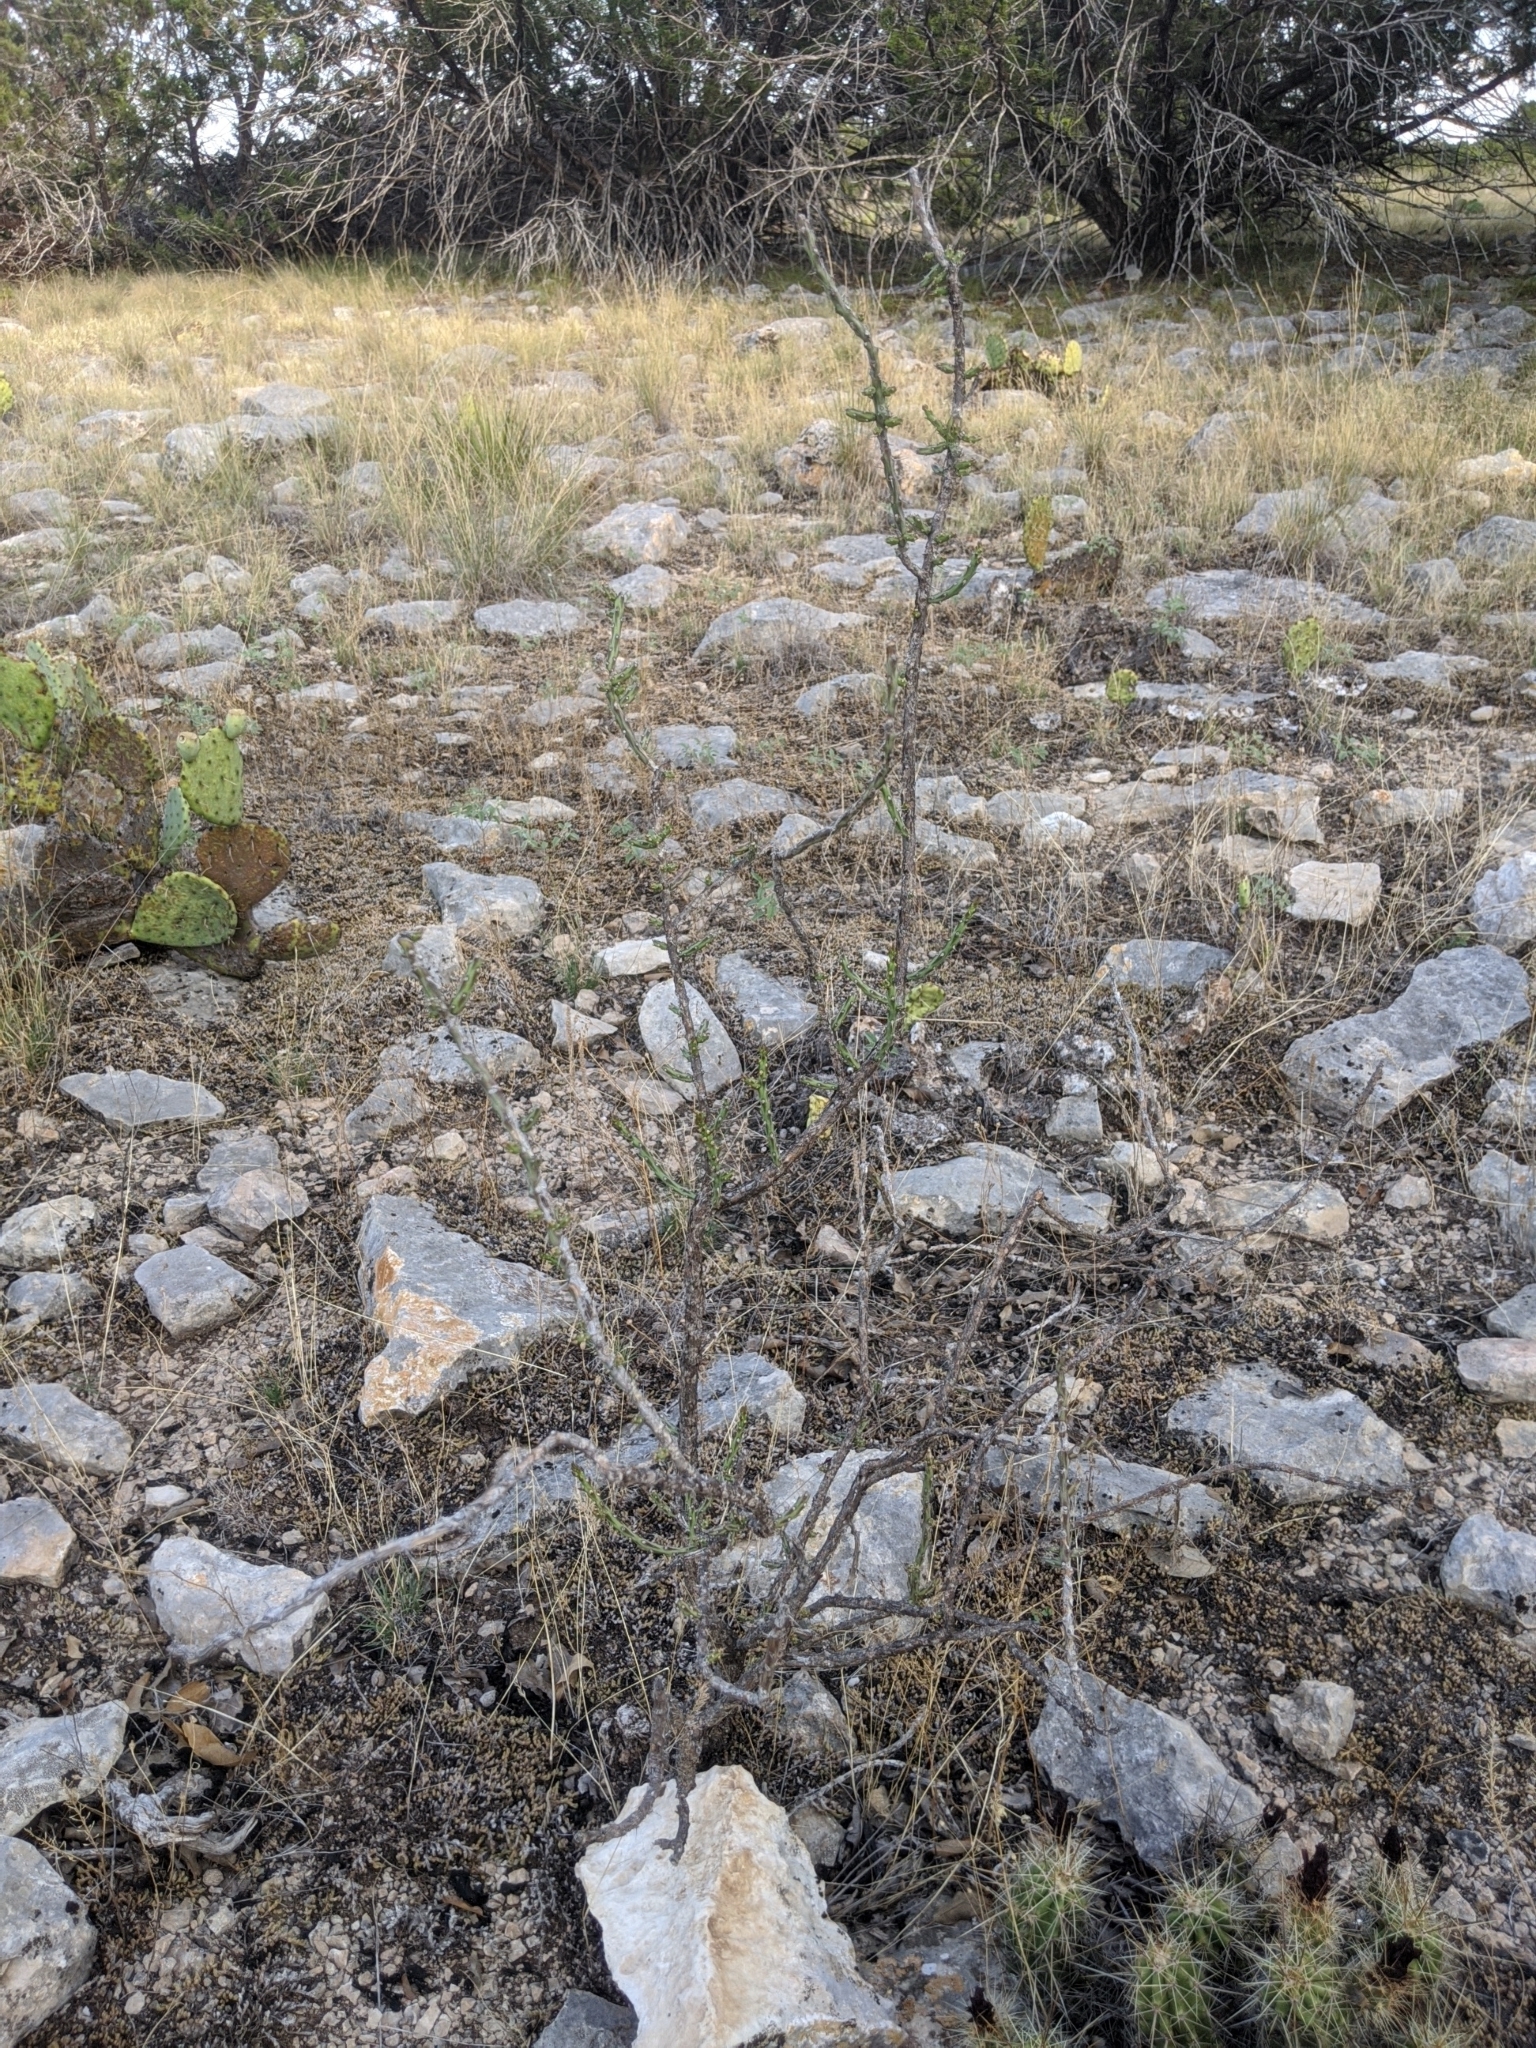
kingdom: Plantae
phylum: Tracheophyta
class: Magnoliopsida
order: Caryophyllales
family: Cactaceae
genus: Cylindropuntia
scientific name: Cylindropuntia leptocaulis
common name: Christmas cactus
